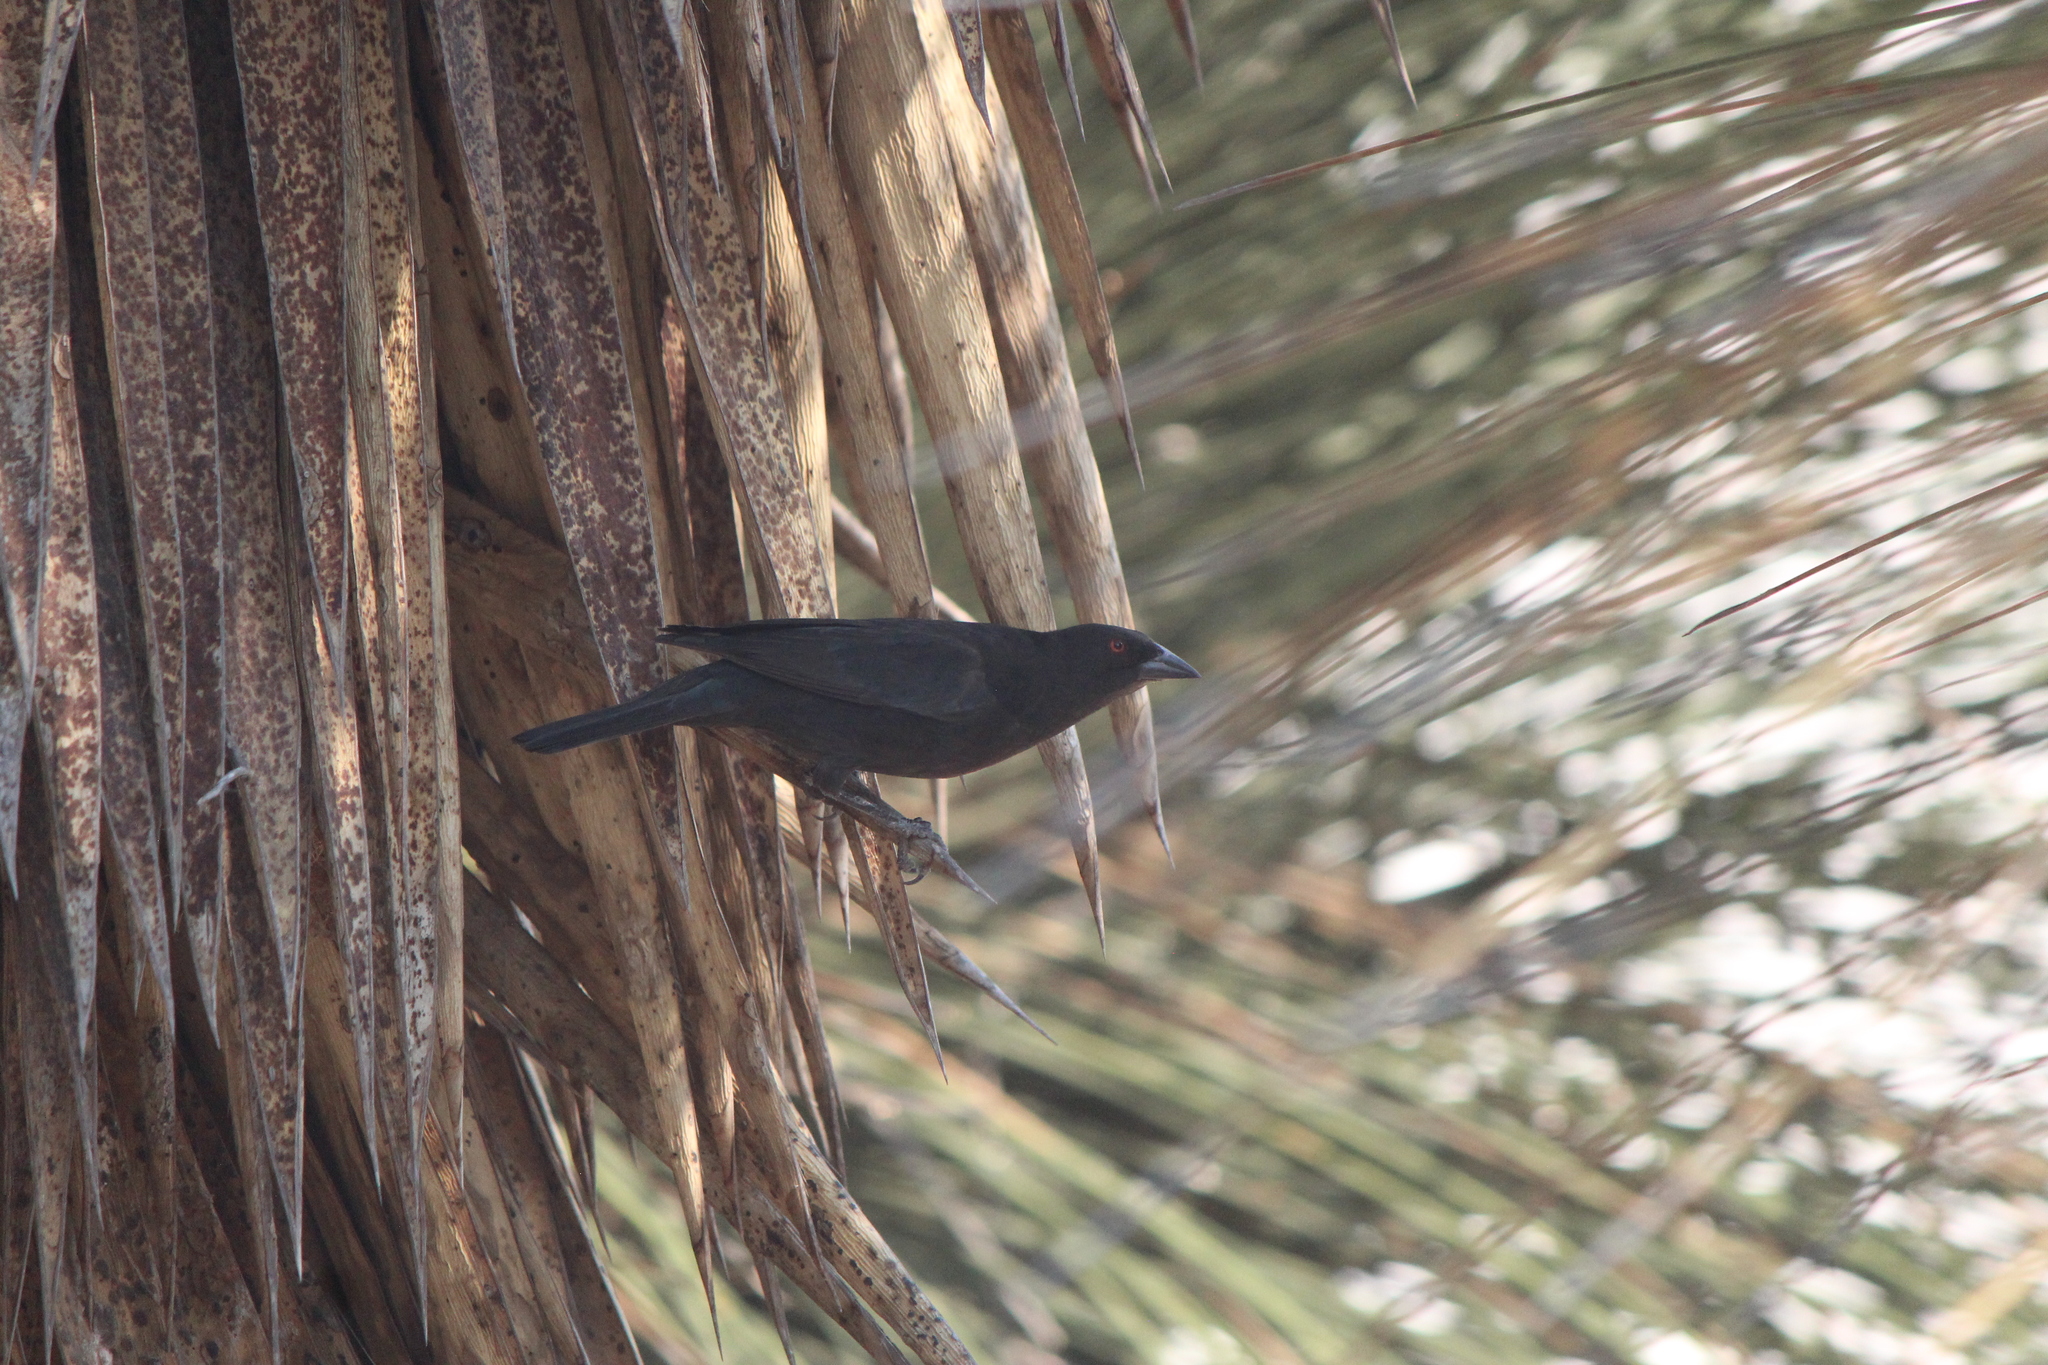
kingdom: Animalia
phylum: Chordata
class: Aves
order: Passeriformes
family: Icteridae
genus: Molothrus
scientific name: Molothrus aeneus
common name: Bronzed cowbird
